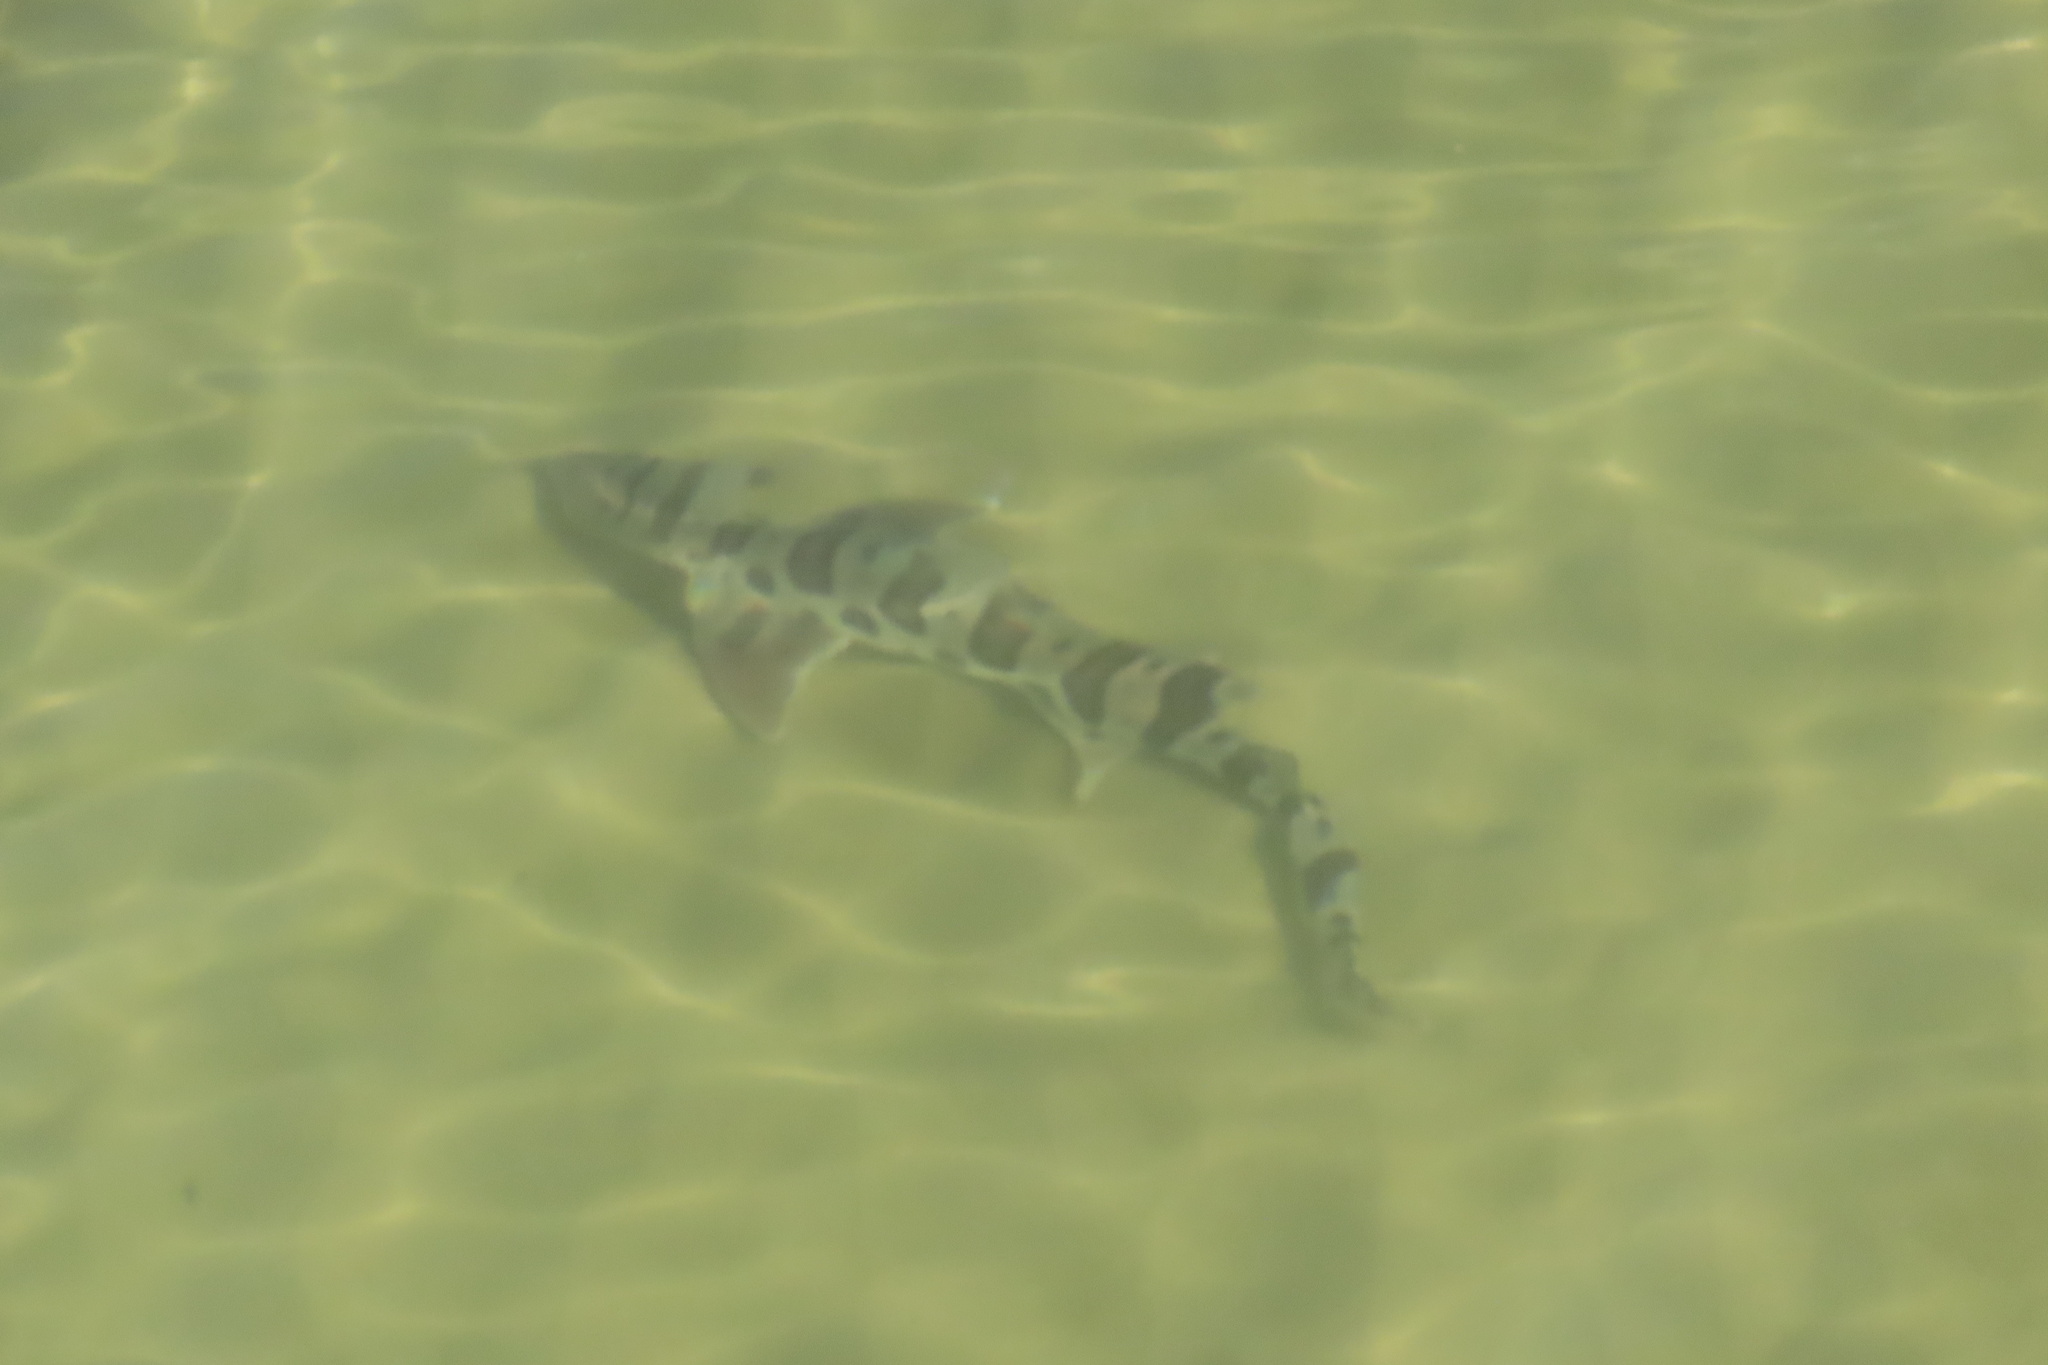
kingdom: Animalia
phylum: Chordata
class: Elasmobranchii
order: Carcharhiniformes
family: Triakidae
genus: Triakis
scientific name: Triakis semifasciata
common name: Leopard shark
